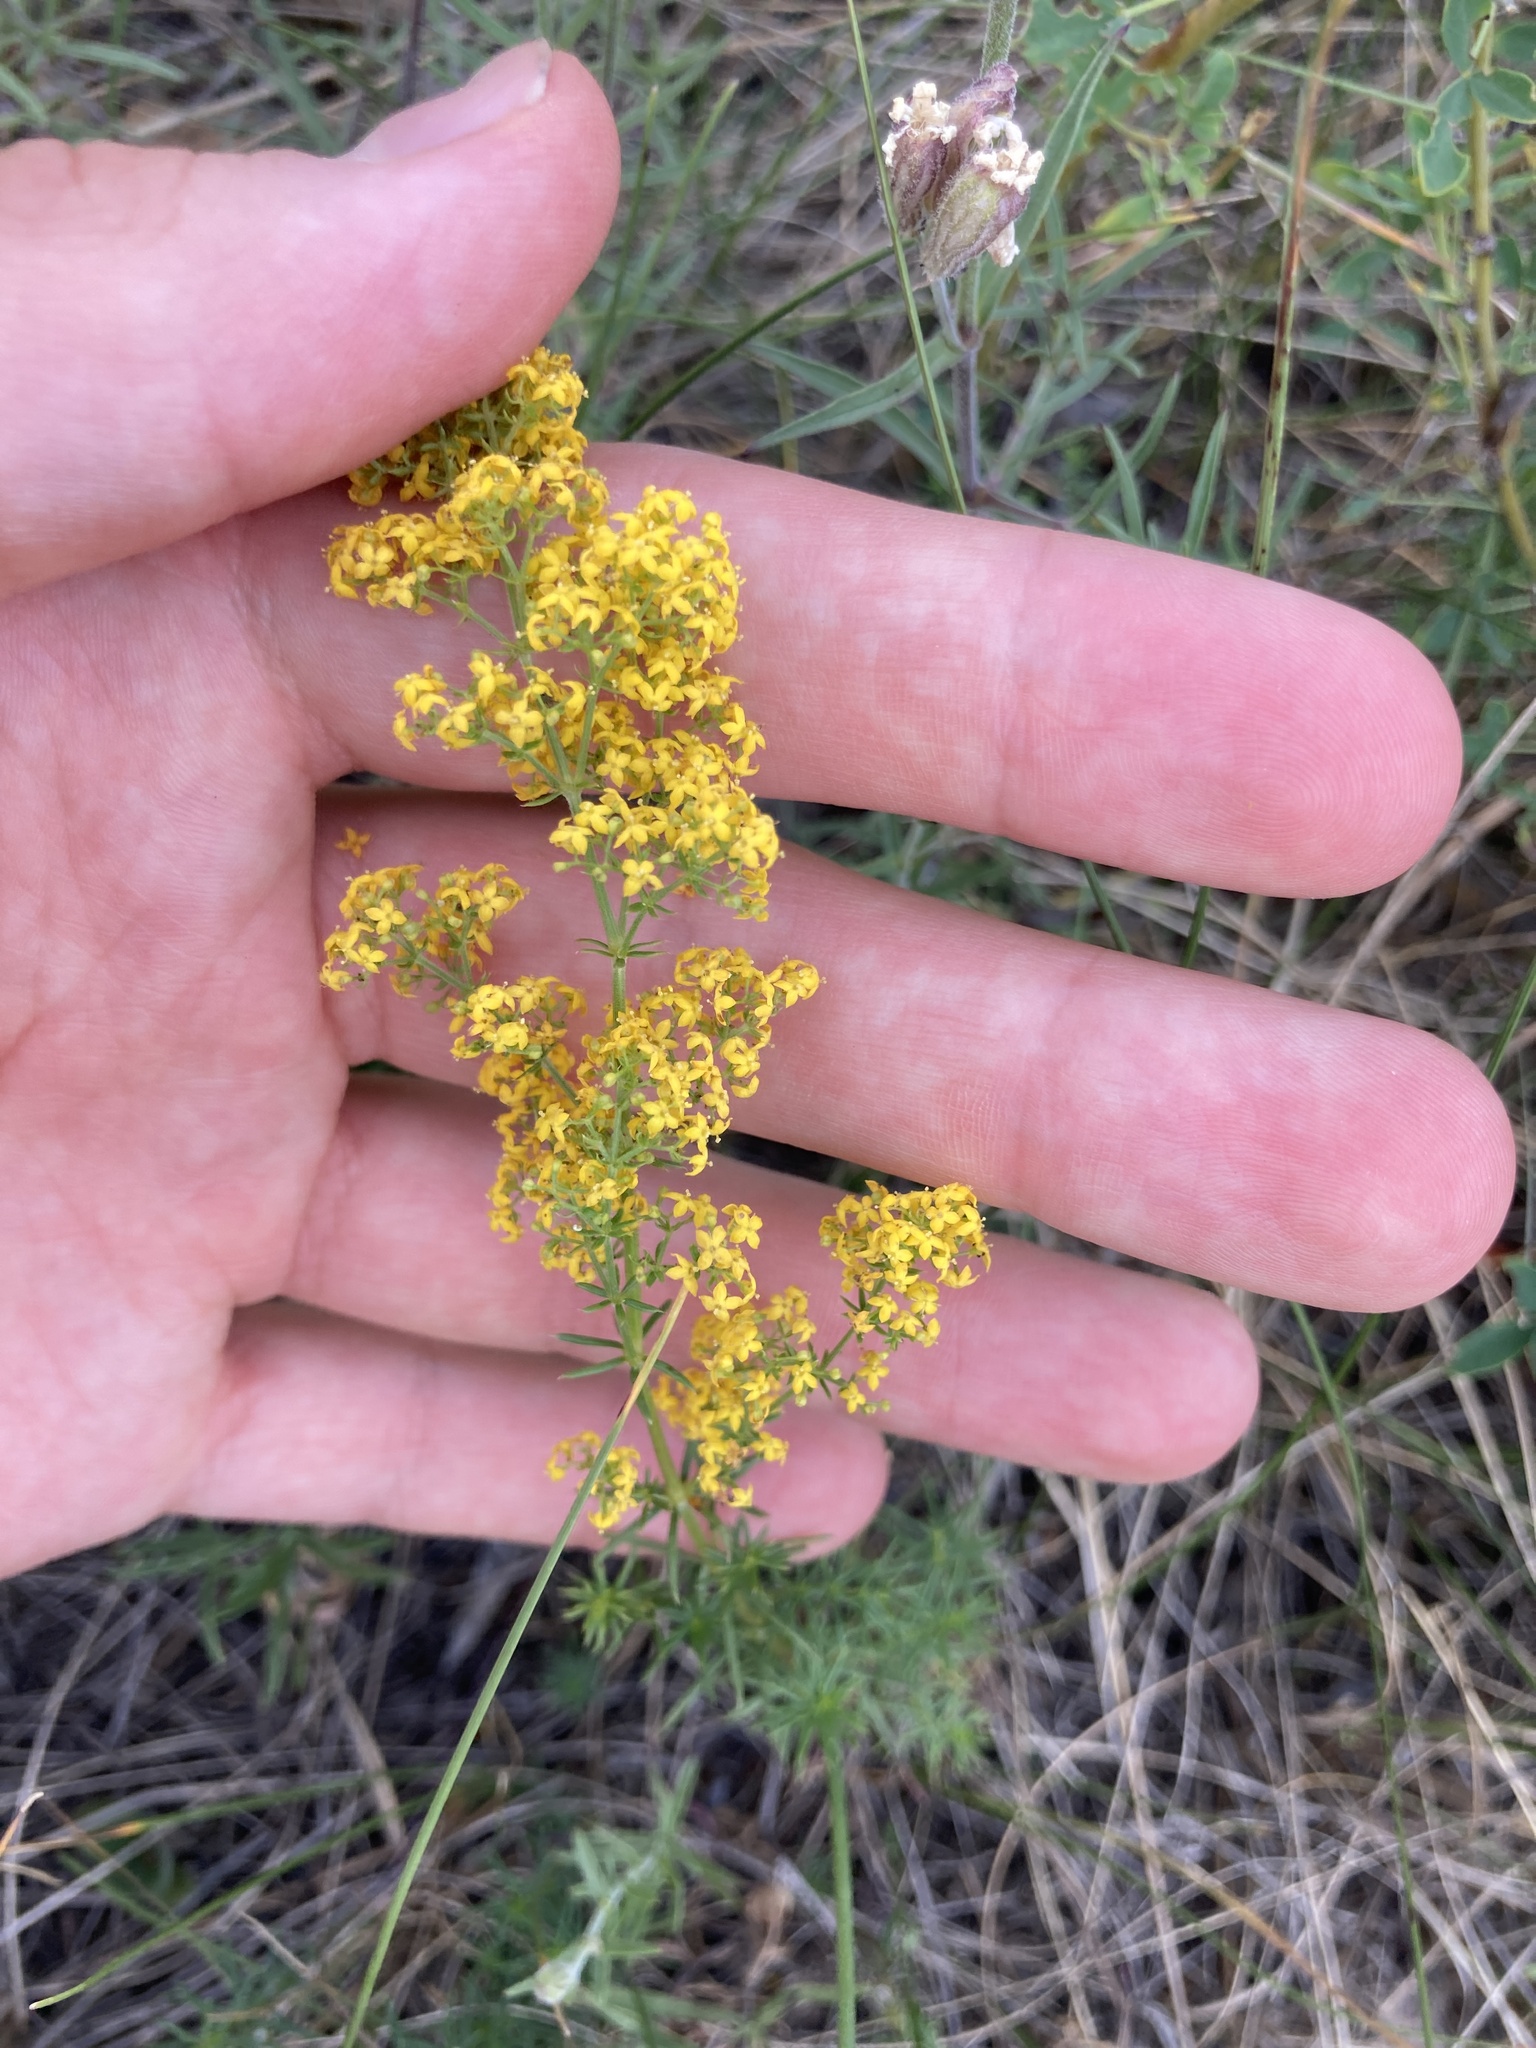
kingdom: Plantae
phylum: Tracheophyta
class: Magnoliopsida
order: Gentianales
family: Rubiaceae
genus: Galium
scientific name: Galium verum
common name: Lady's bedstraw
